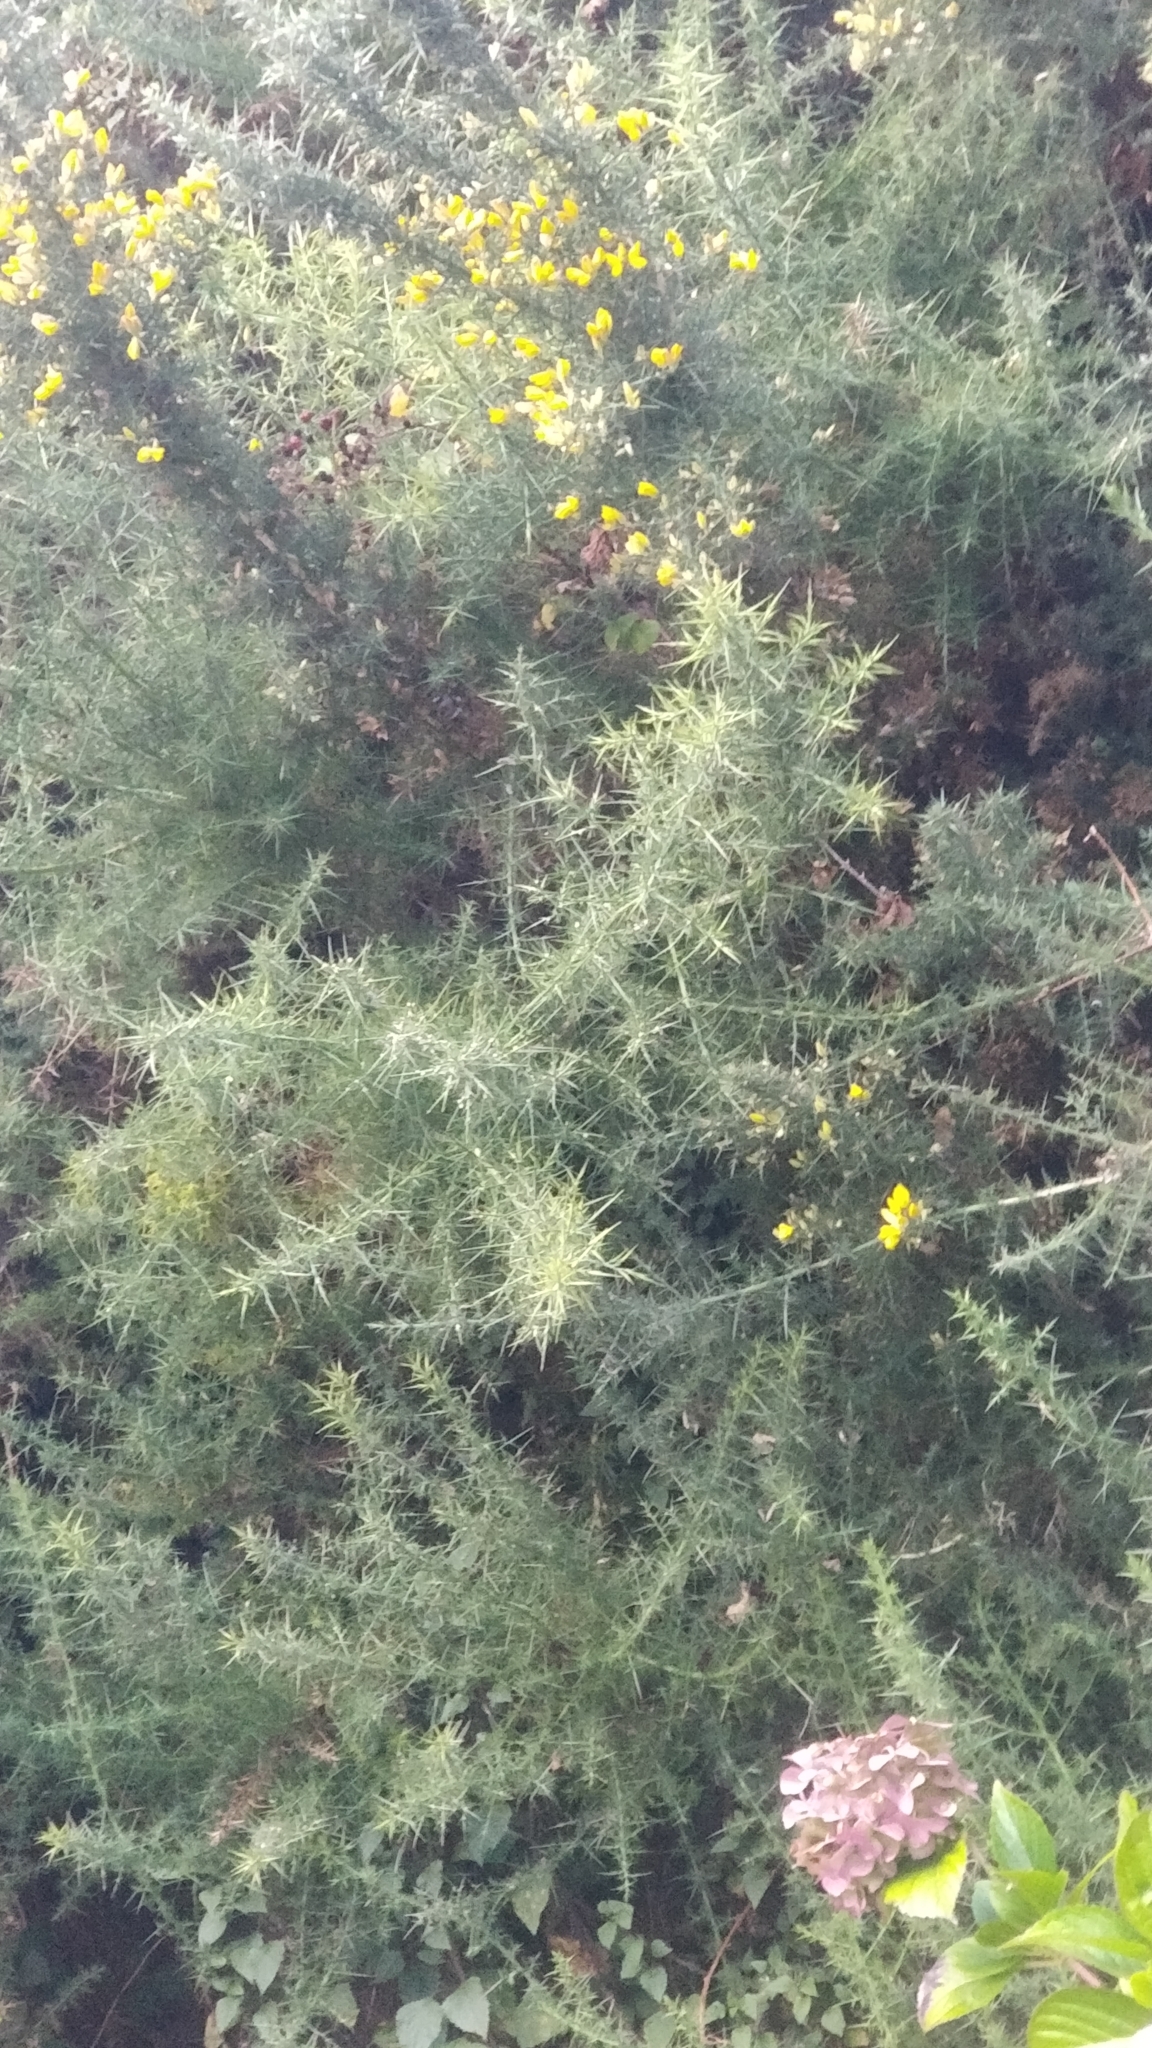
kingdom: Plantae
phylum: Tracheophyta
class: Magnoliopsida
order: Fabales
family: Fabaceae
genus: Ulex
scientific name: Ulex europaeus
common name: Common gorse
